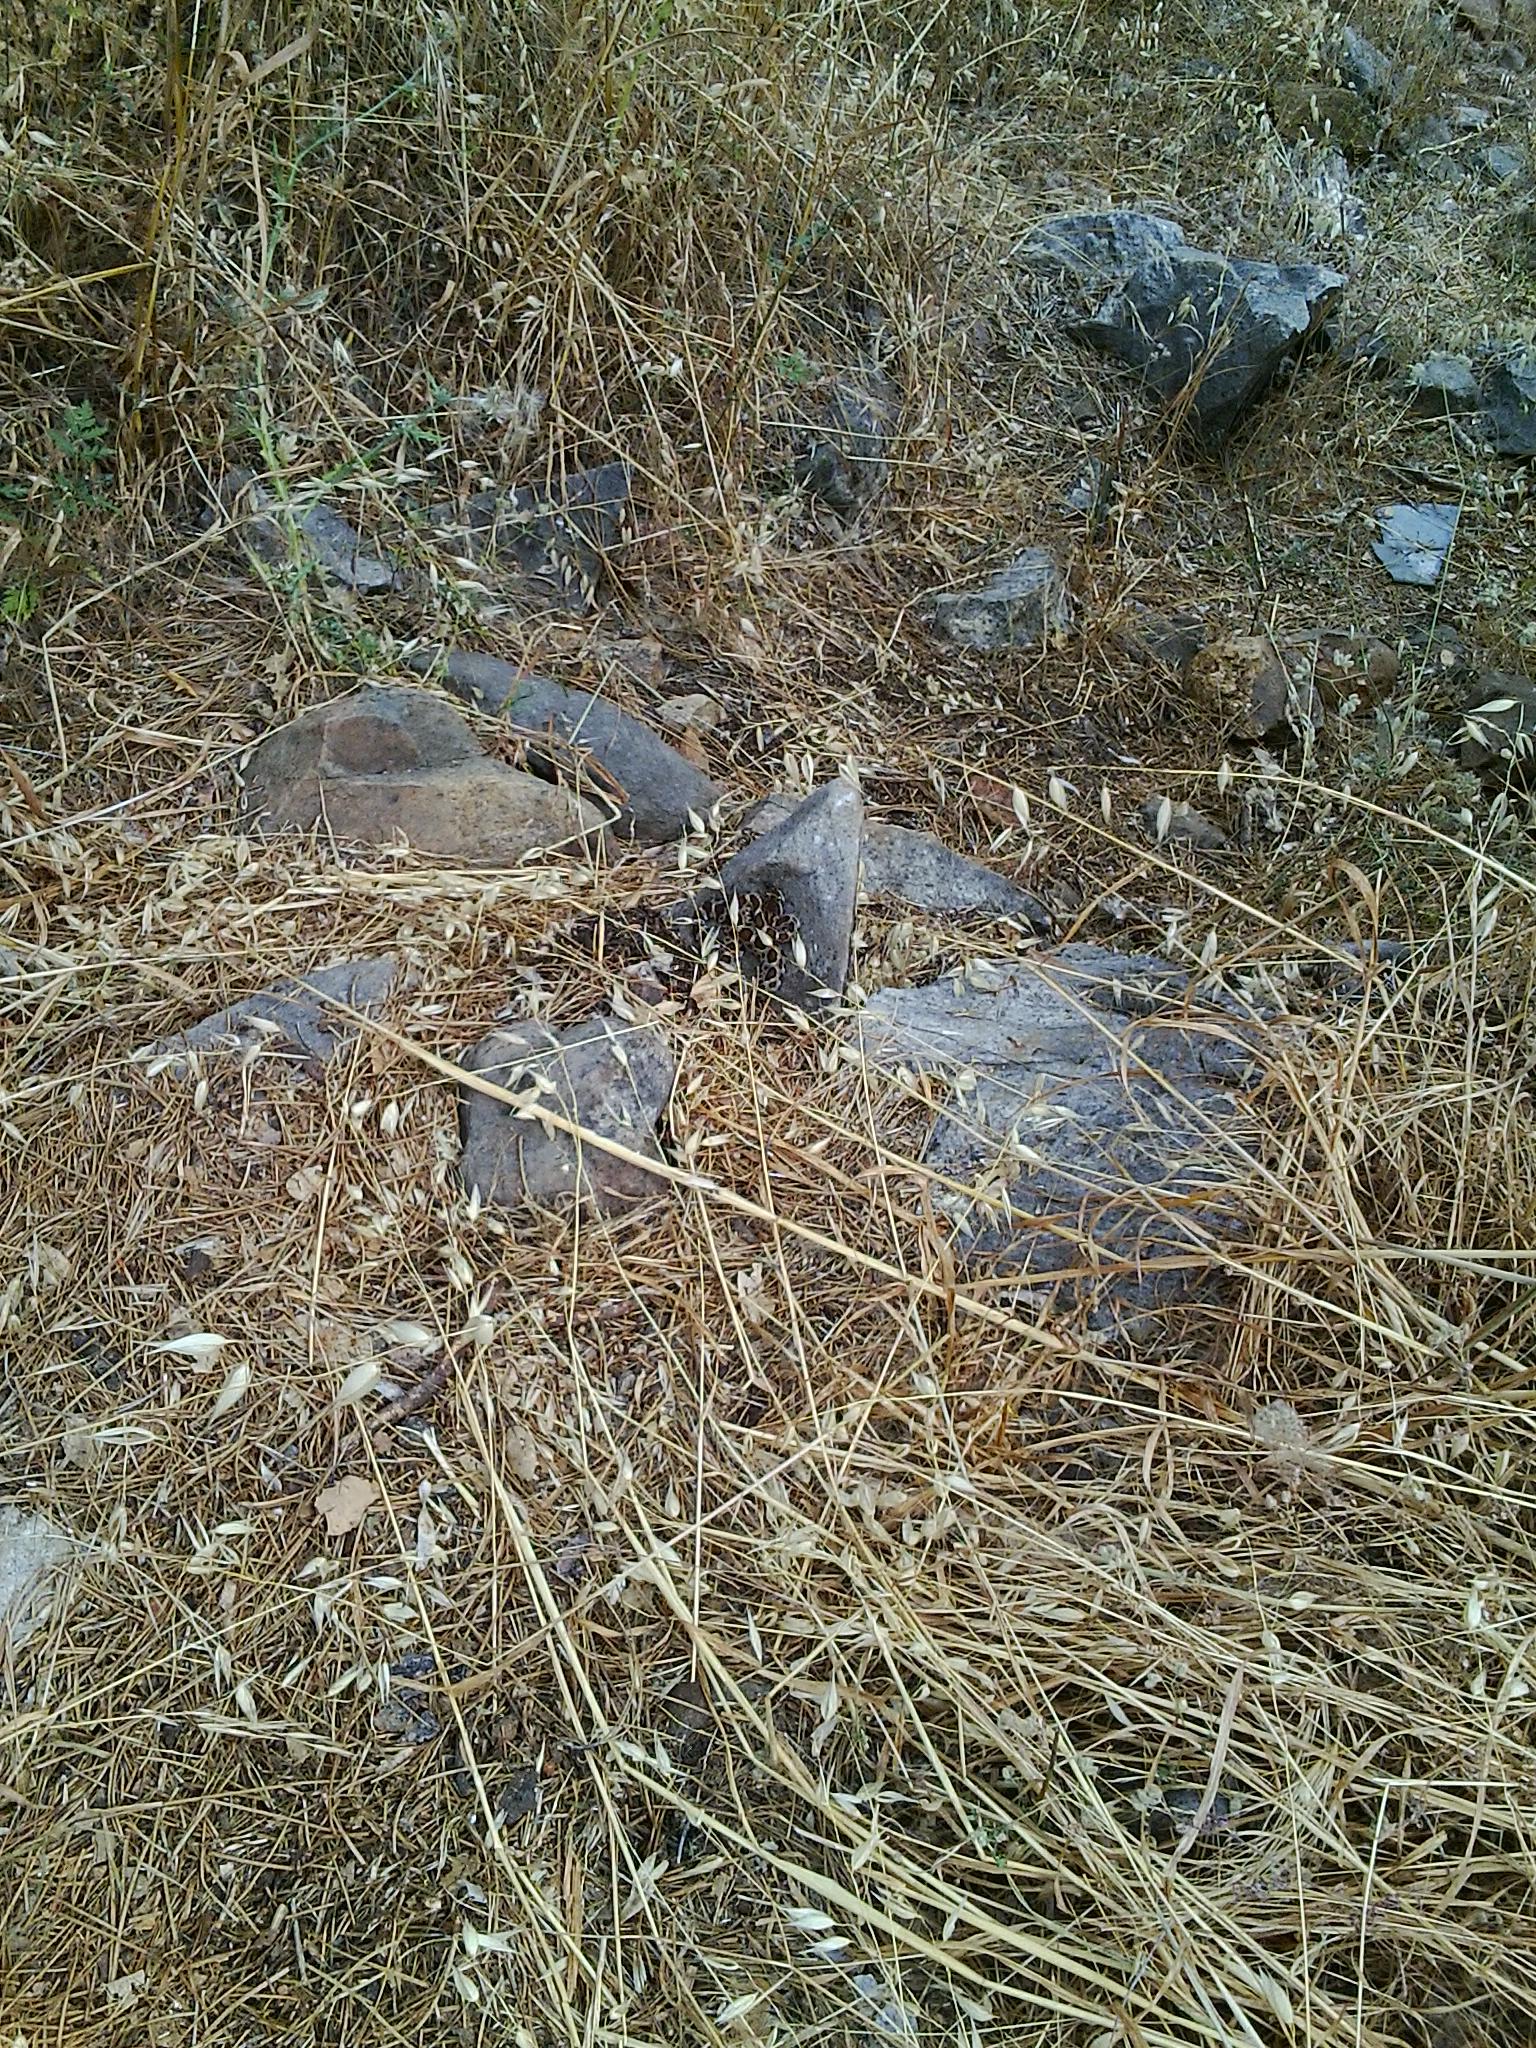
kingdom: Animalia
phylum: Chordata
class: Squamata
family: Viperidae
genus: Crotalus
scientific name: Crotalus oreganus
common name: Abyssus
